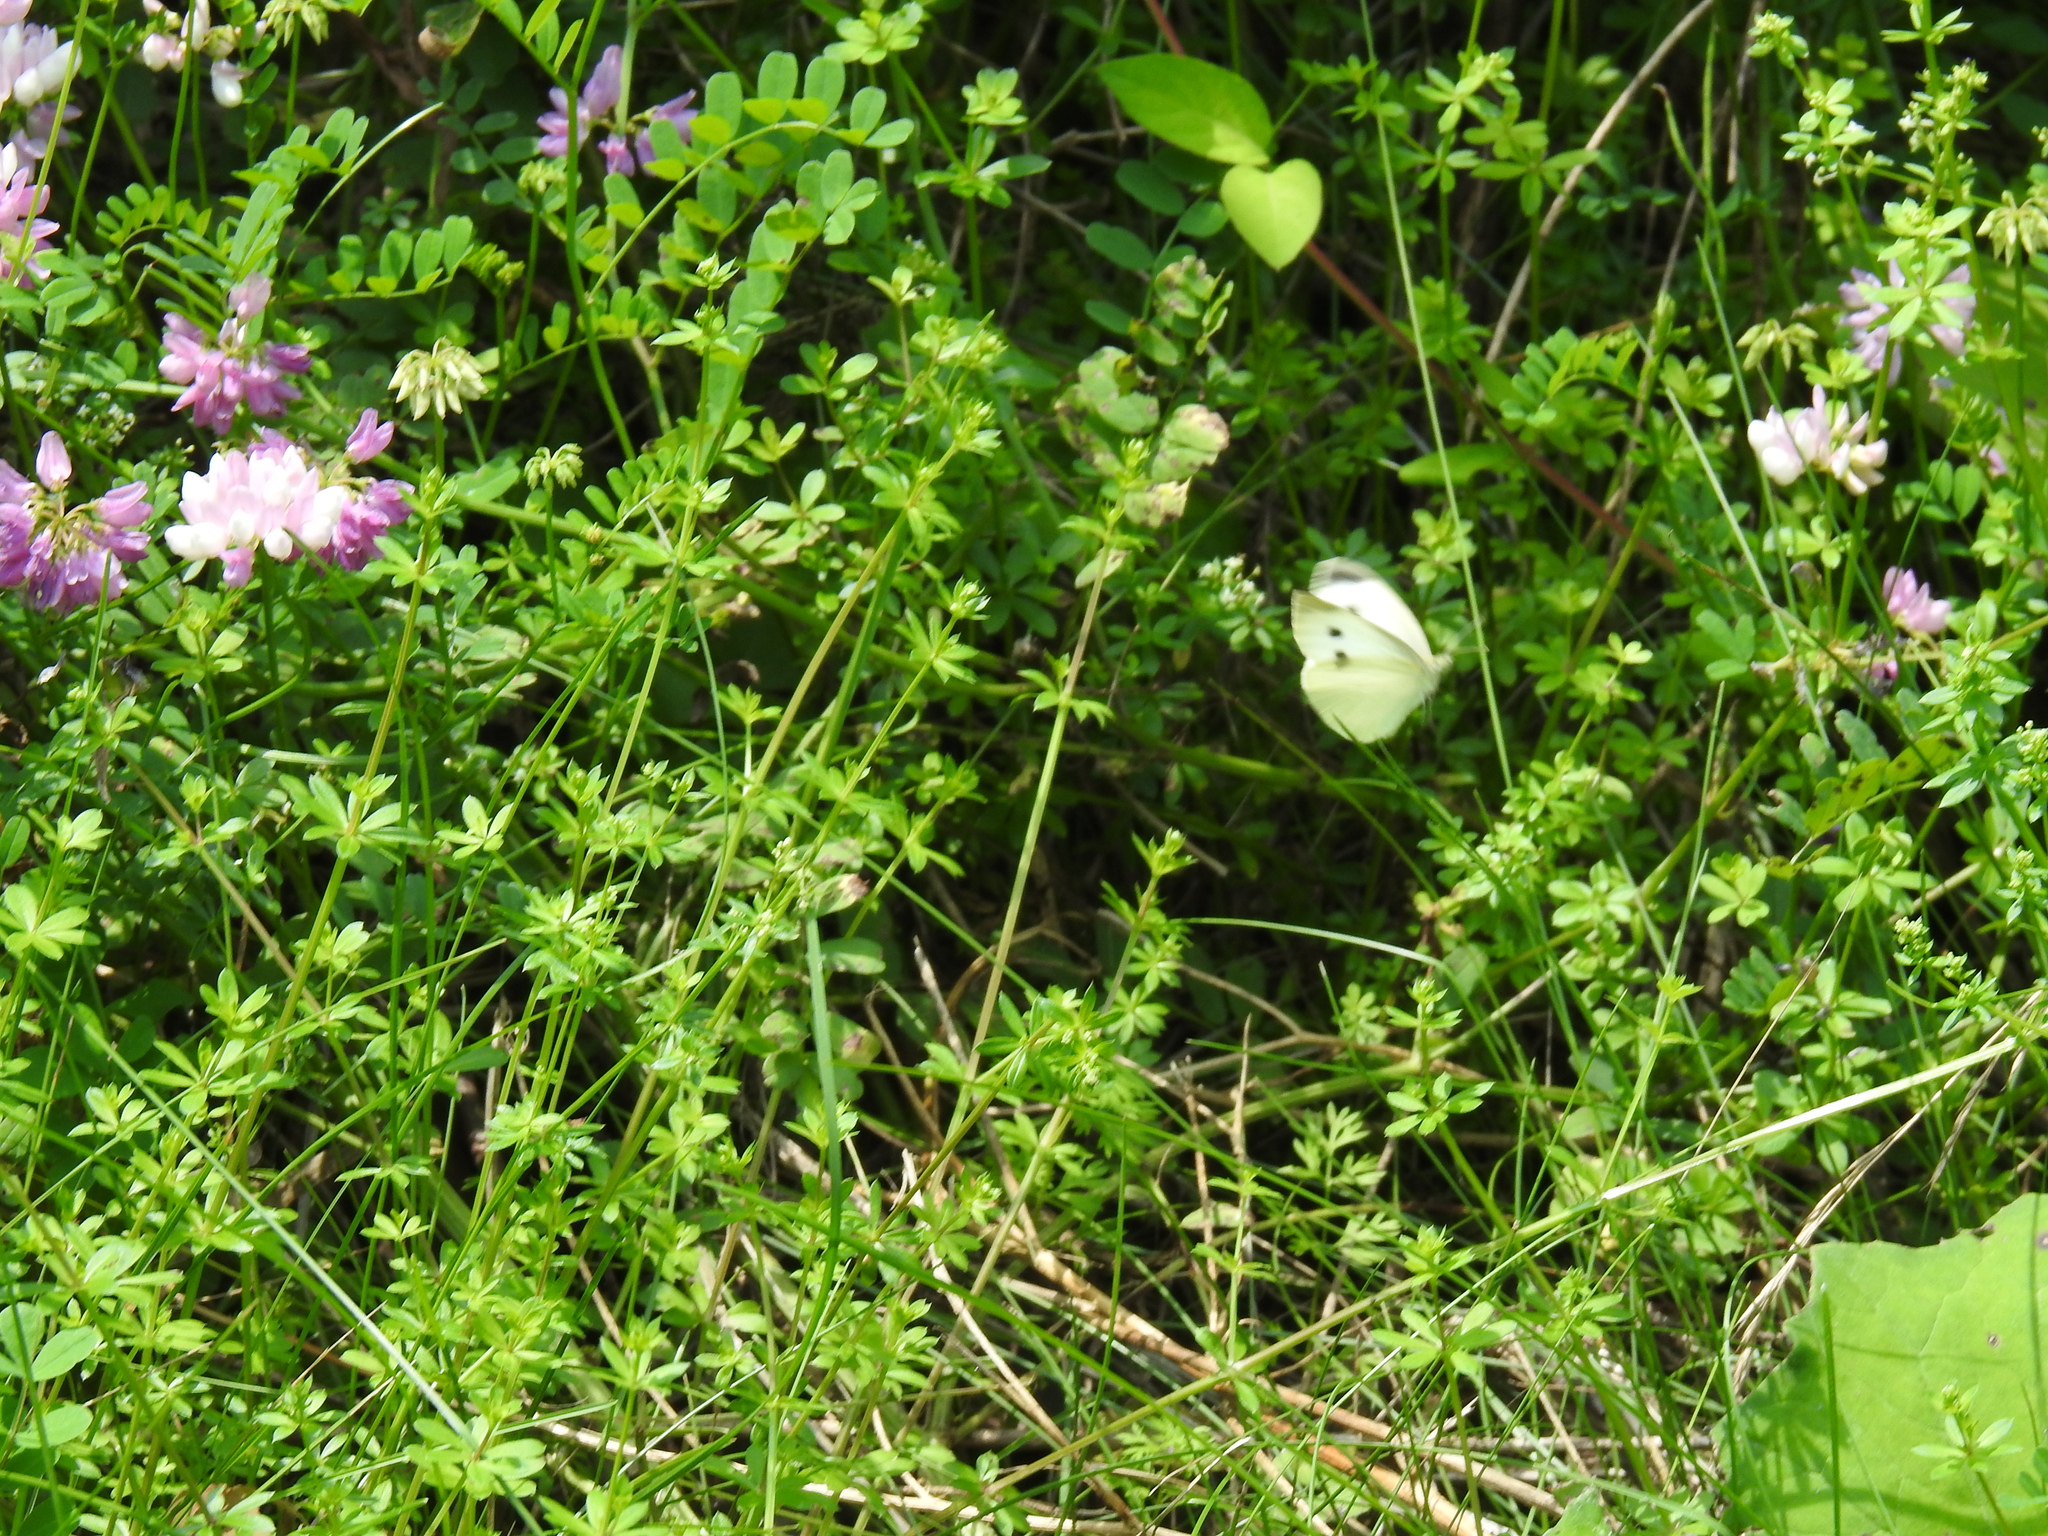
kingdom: Animalia
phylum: Arthropoda
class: Insecta
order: Lepidoptera
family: Pieridae
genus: Pieris
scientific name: Pieris rapae
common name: Small white
